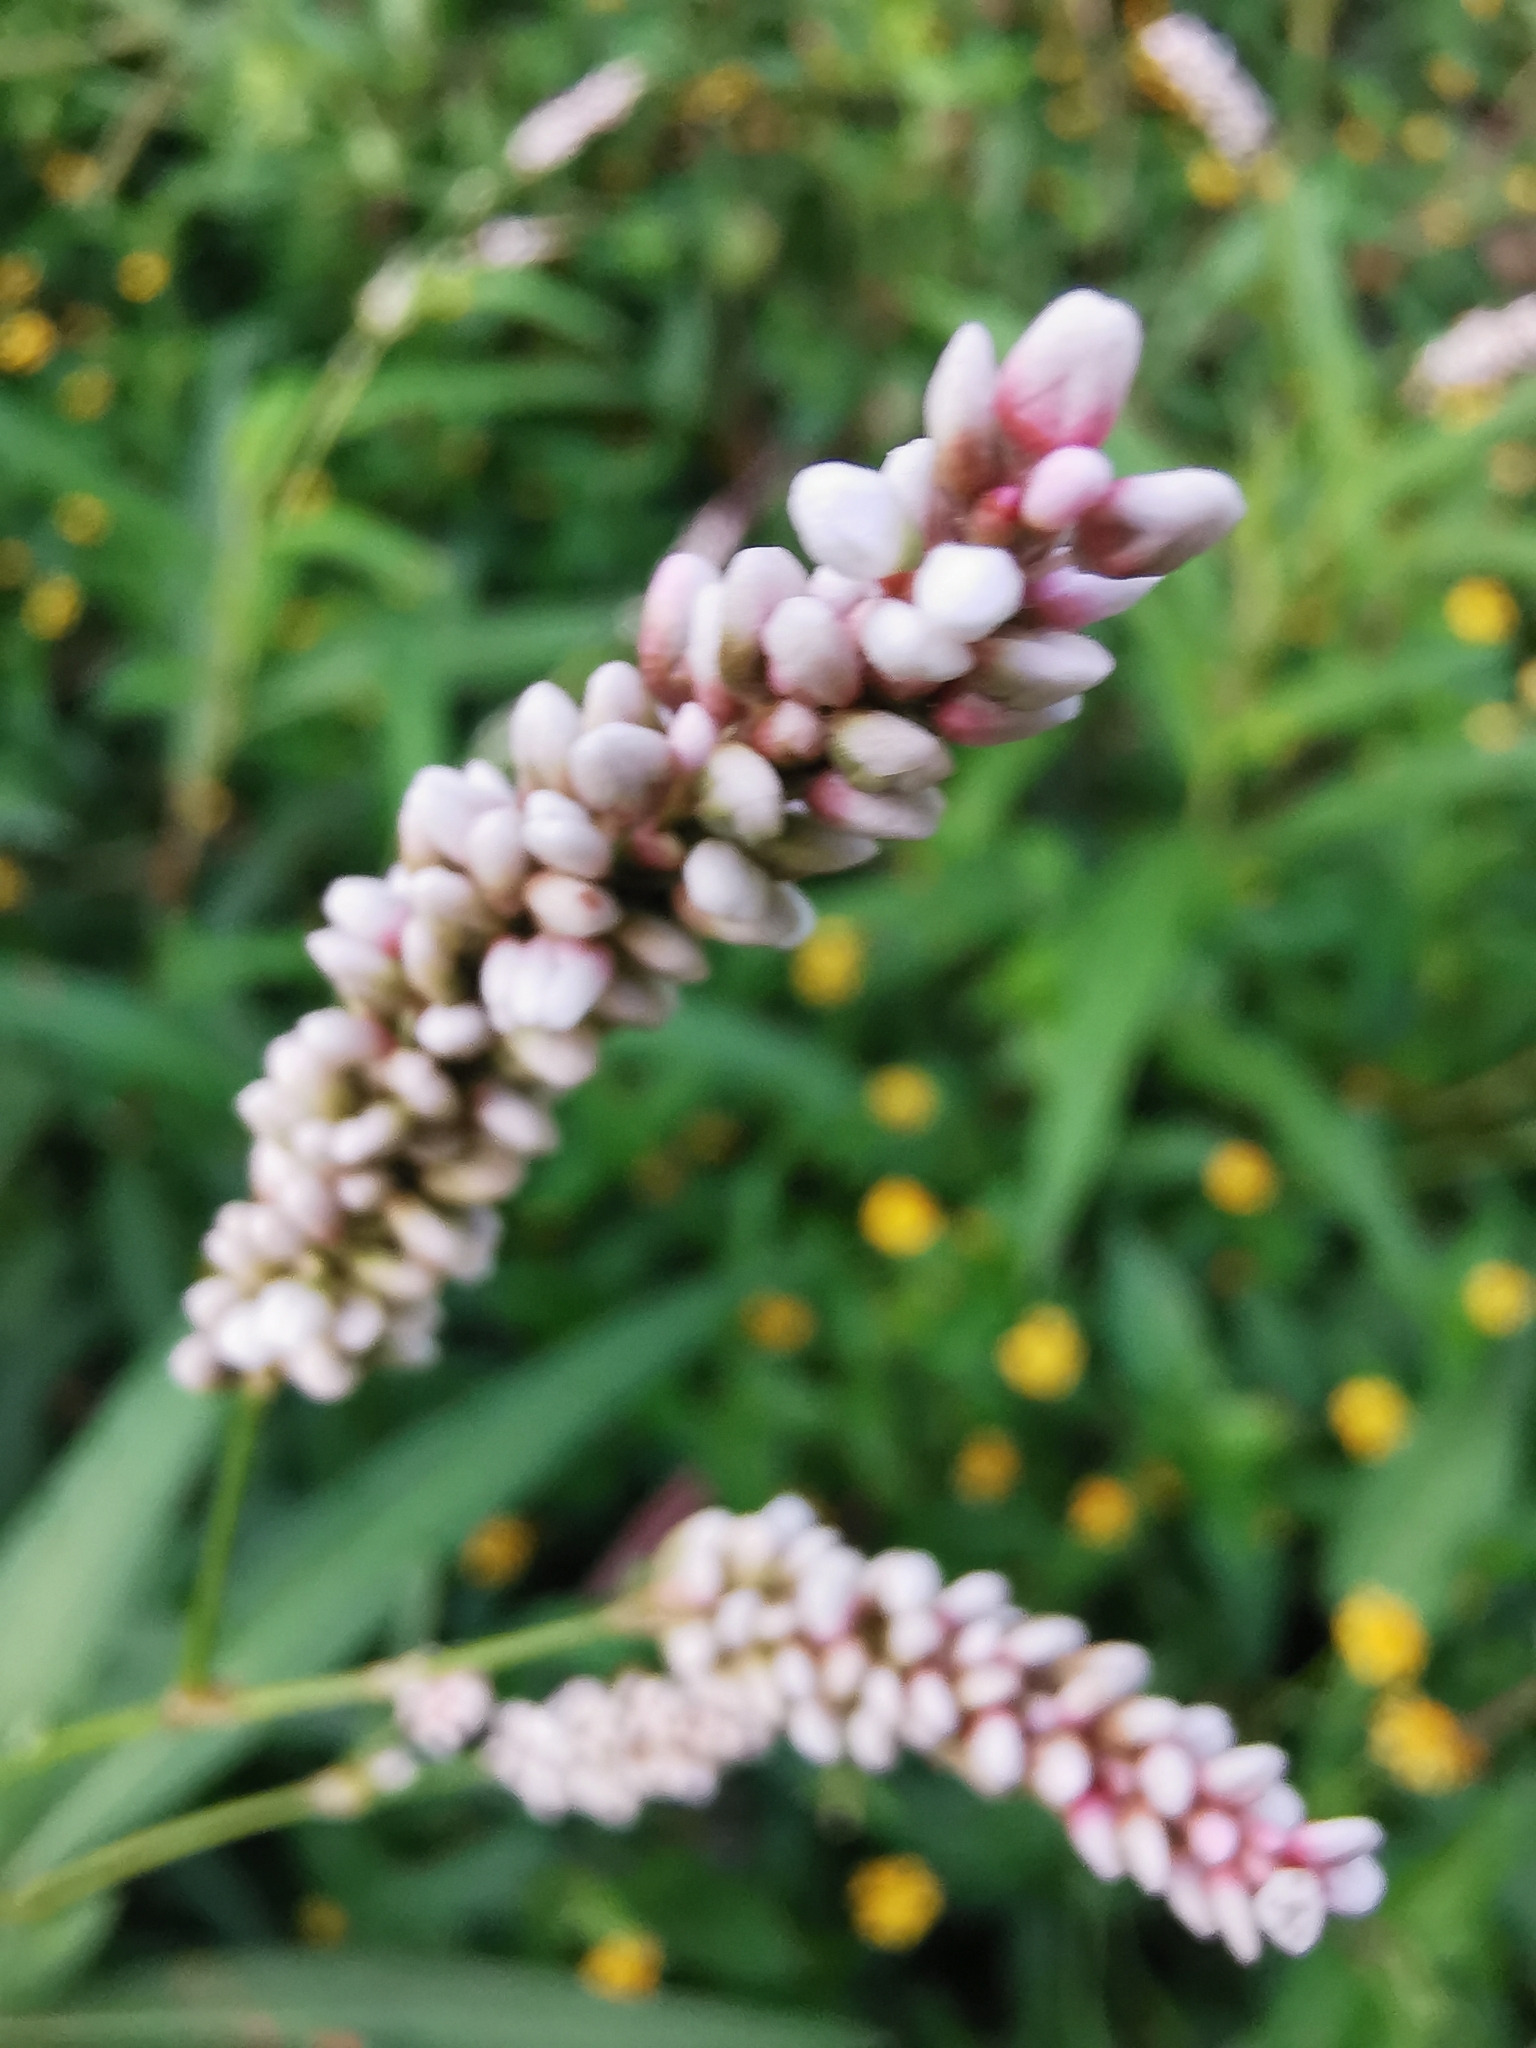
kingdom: Plantae
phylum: Tracheophyta
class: Magnoliopsida
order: Caryophyllales
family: Polygonaceae
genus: Persicaria
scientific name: Persicaria hydropiperoides
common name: Swamp smartweed
